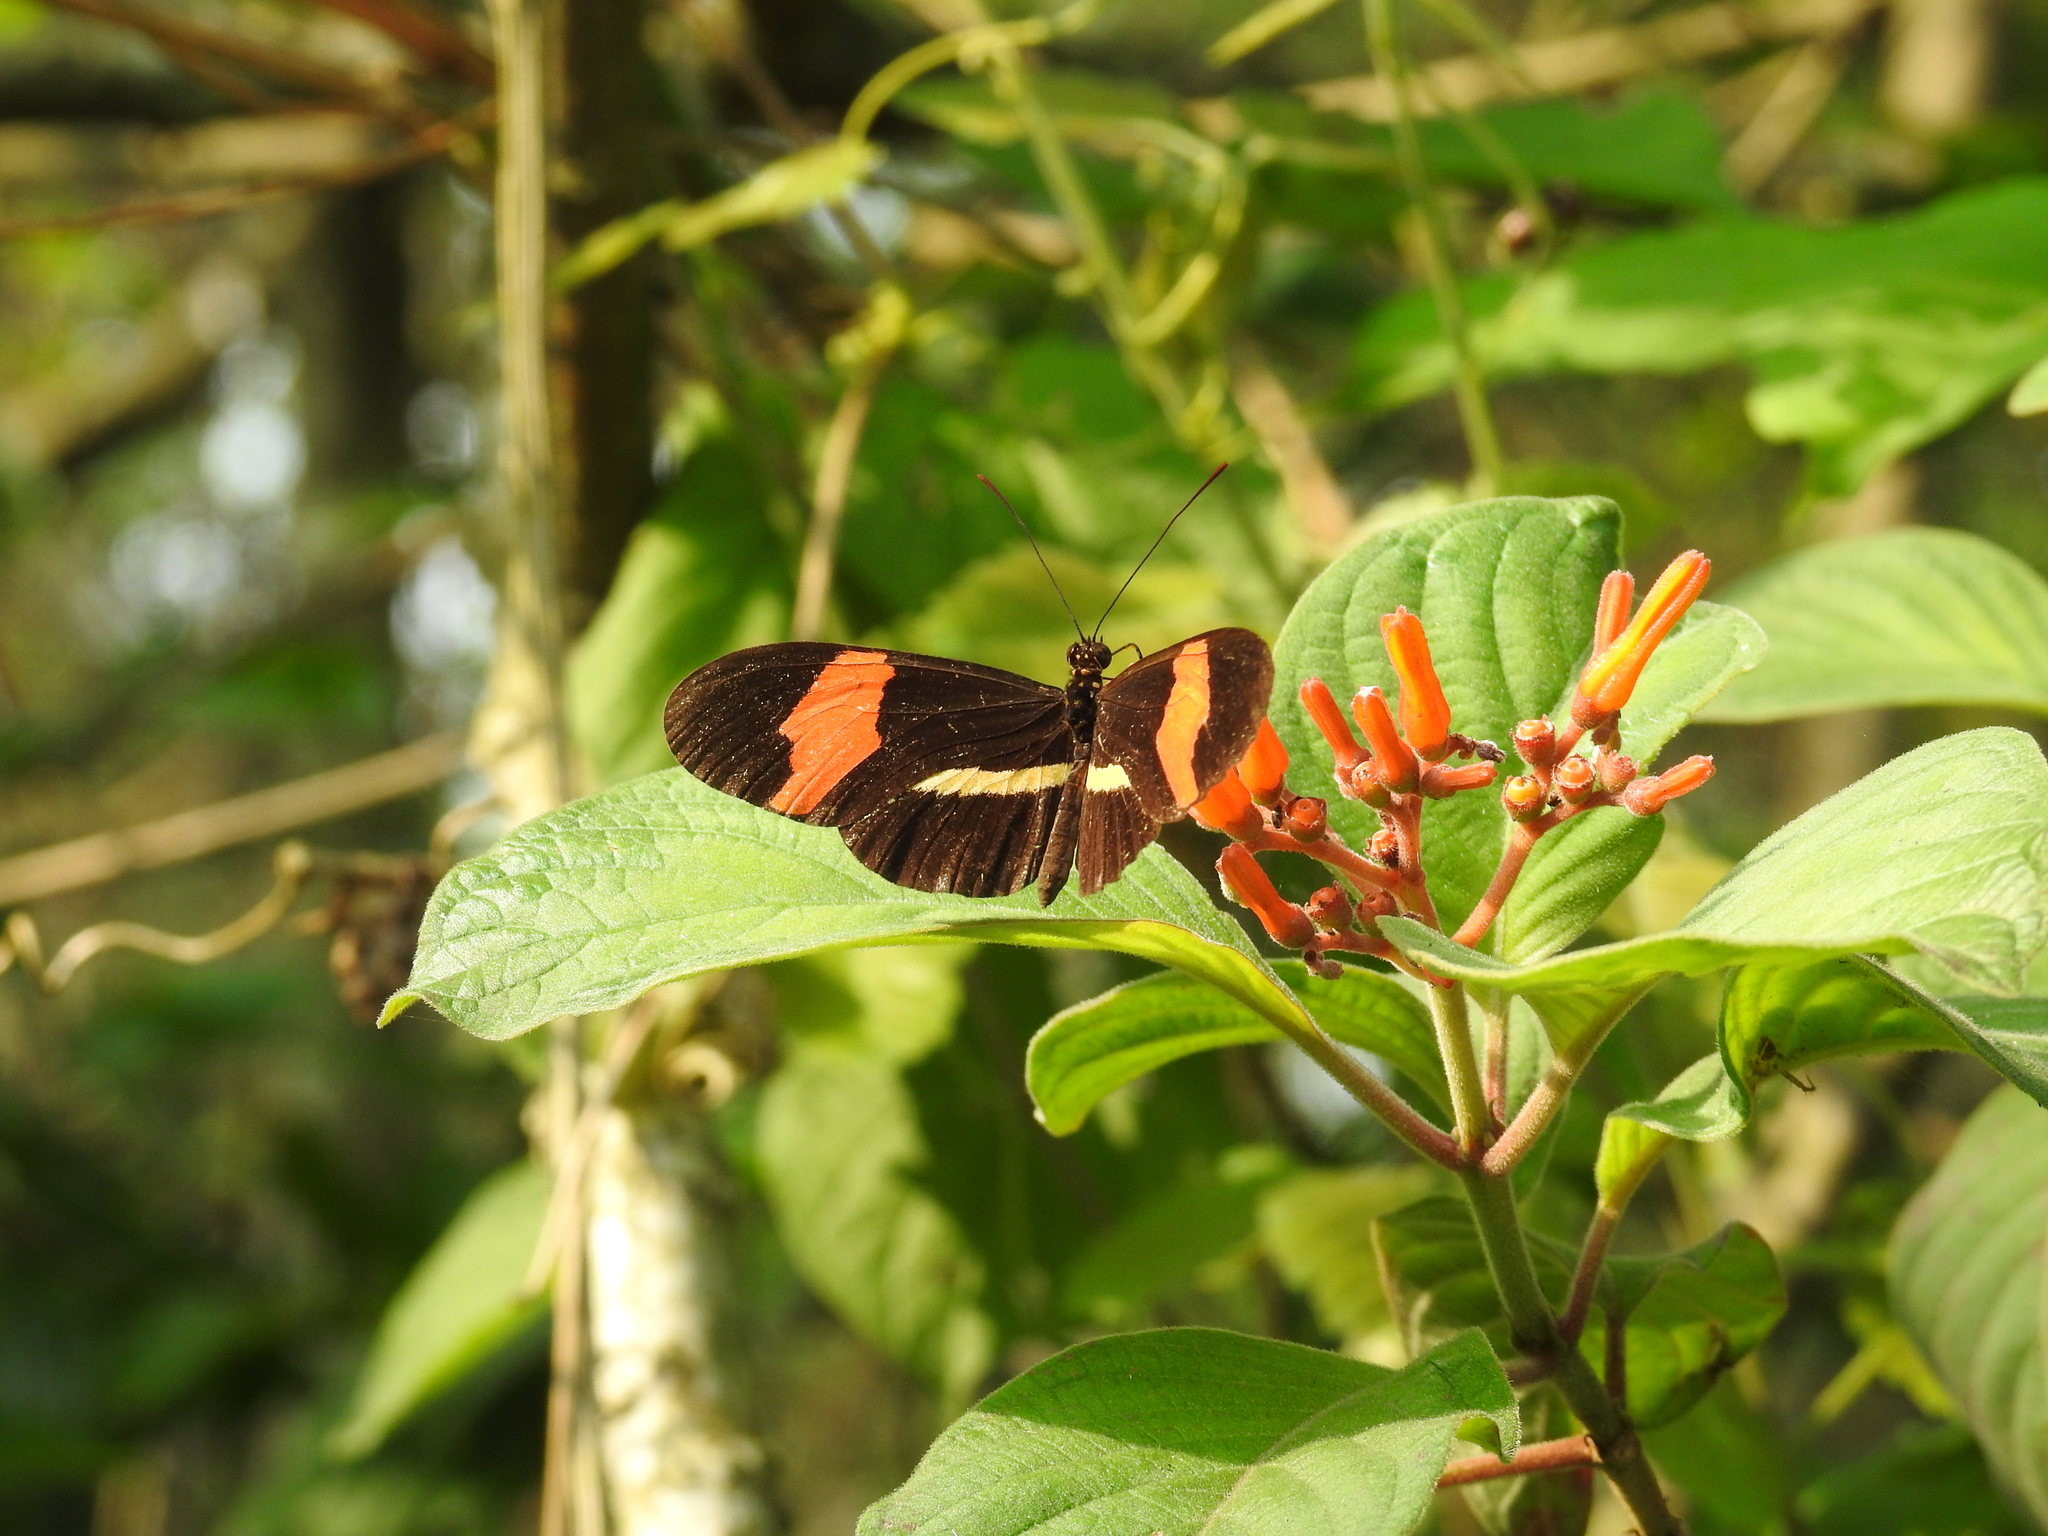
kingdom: Animalia
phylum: Arthropoda
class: Insecta
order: Lepidoptera
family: Nymphalidae
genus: Tirumala
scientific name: Tirumala petiverana
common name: Blue monarch
